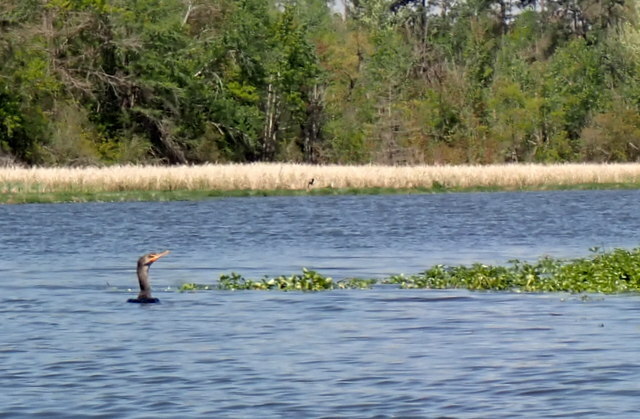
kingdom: Animalia
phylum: Chordata
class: Aves
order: Suliformes
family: Phalacrocoracidae
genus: Phalacrocorax
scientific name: Phalacrocorax auritus
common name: Double-crested cormorant
